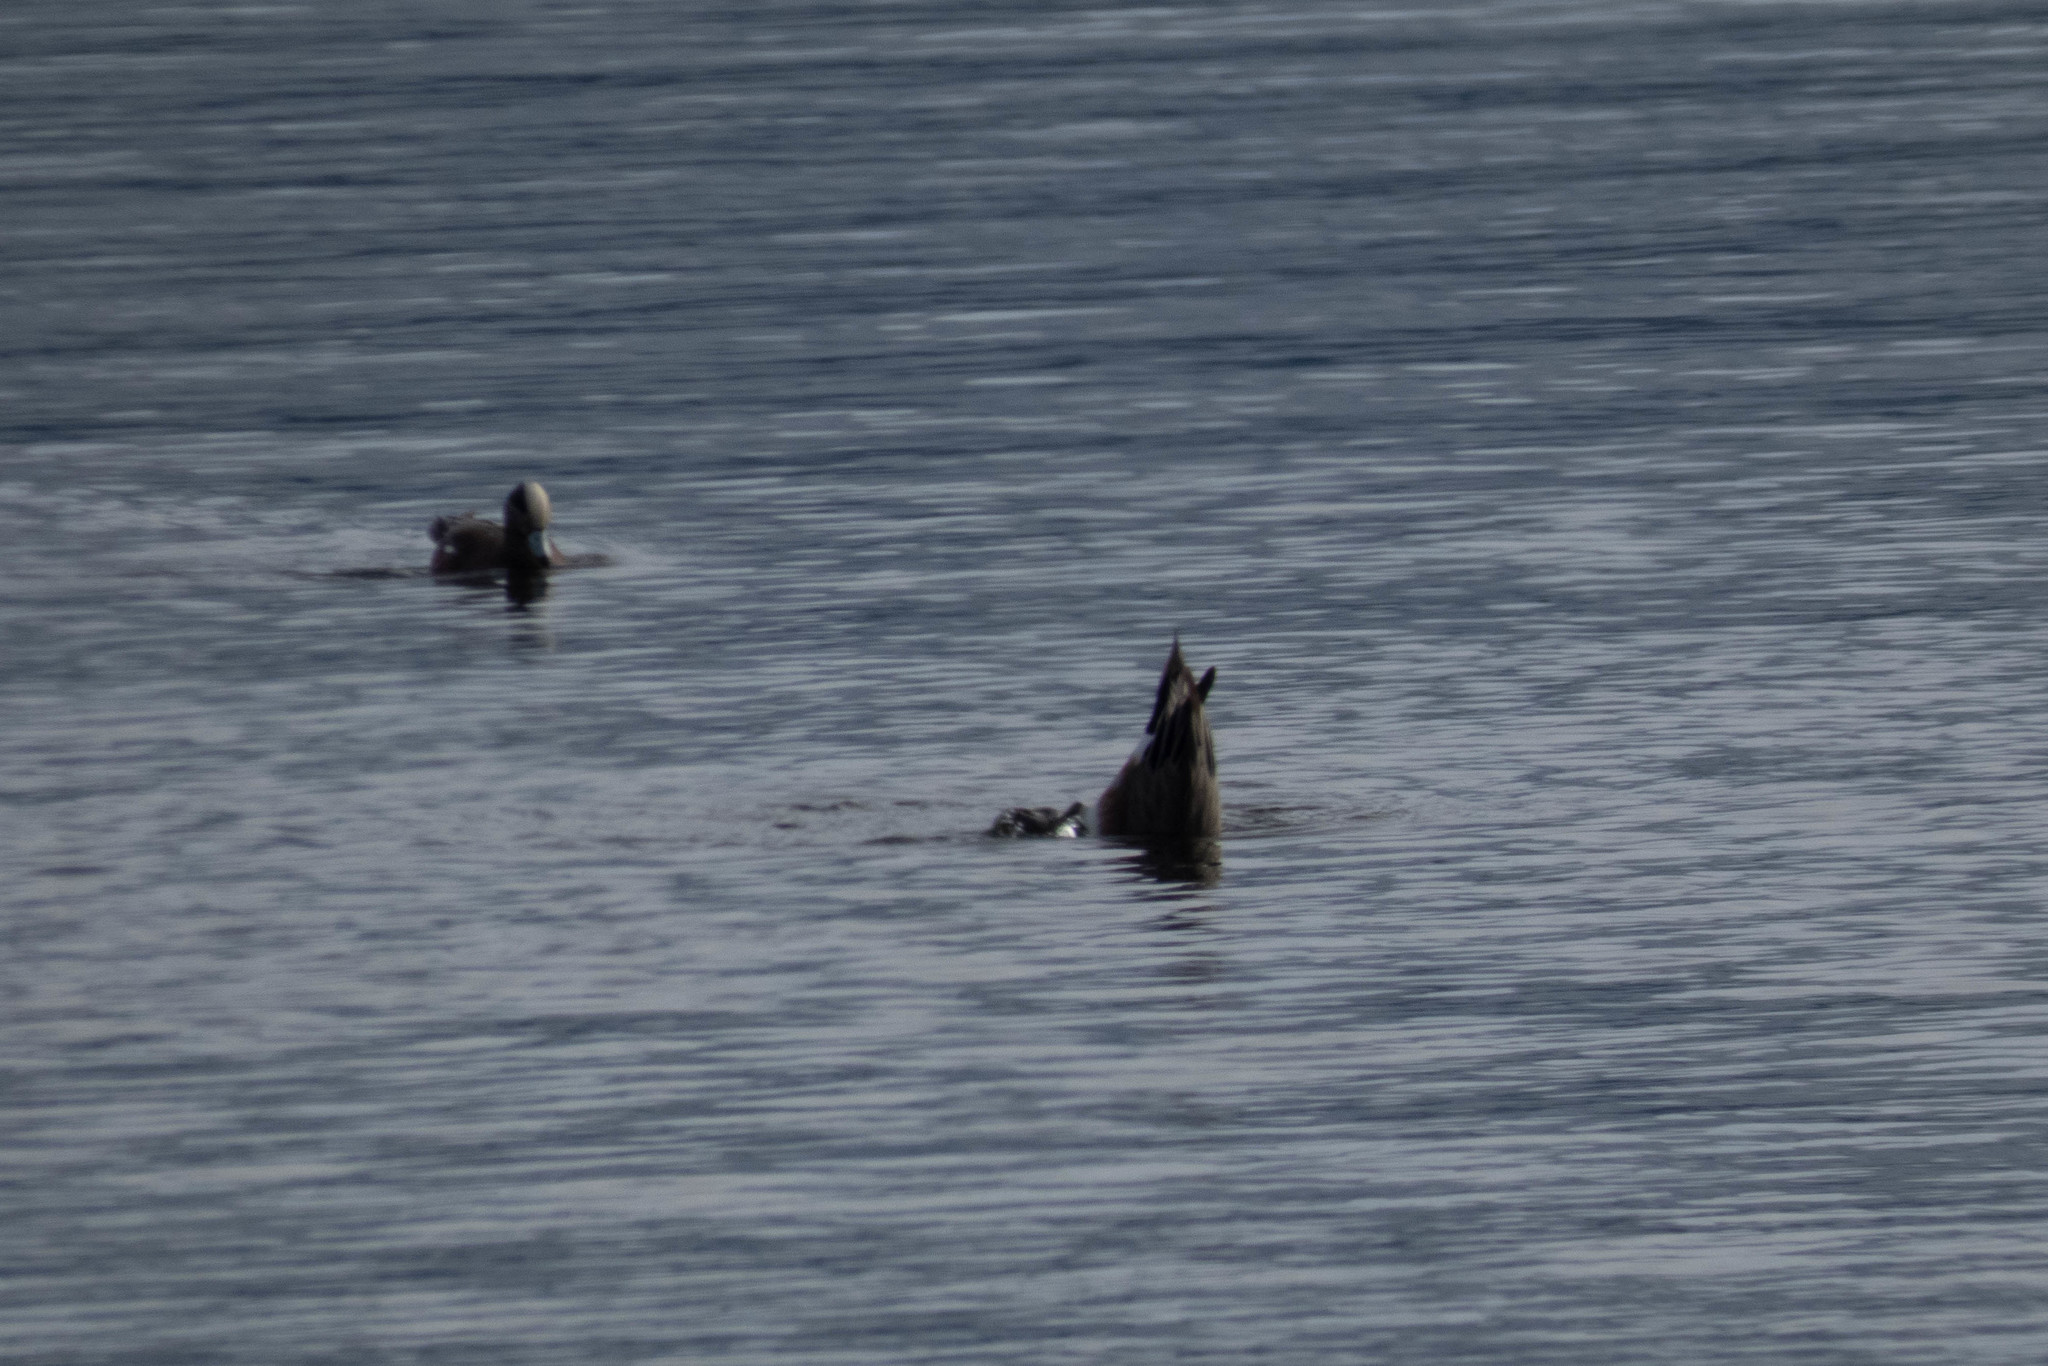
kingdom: Animalia
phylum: Chordata
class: Aves
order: Anseriformes
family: Anatidae
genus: Mareca
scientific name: Mareca americana
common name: American wigeon
